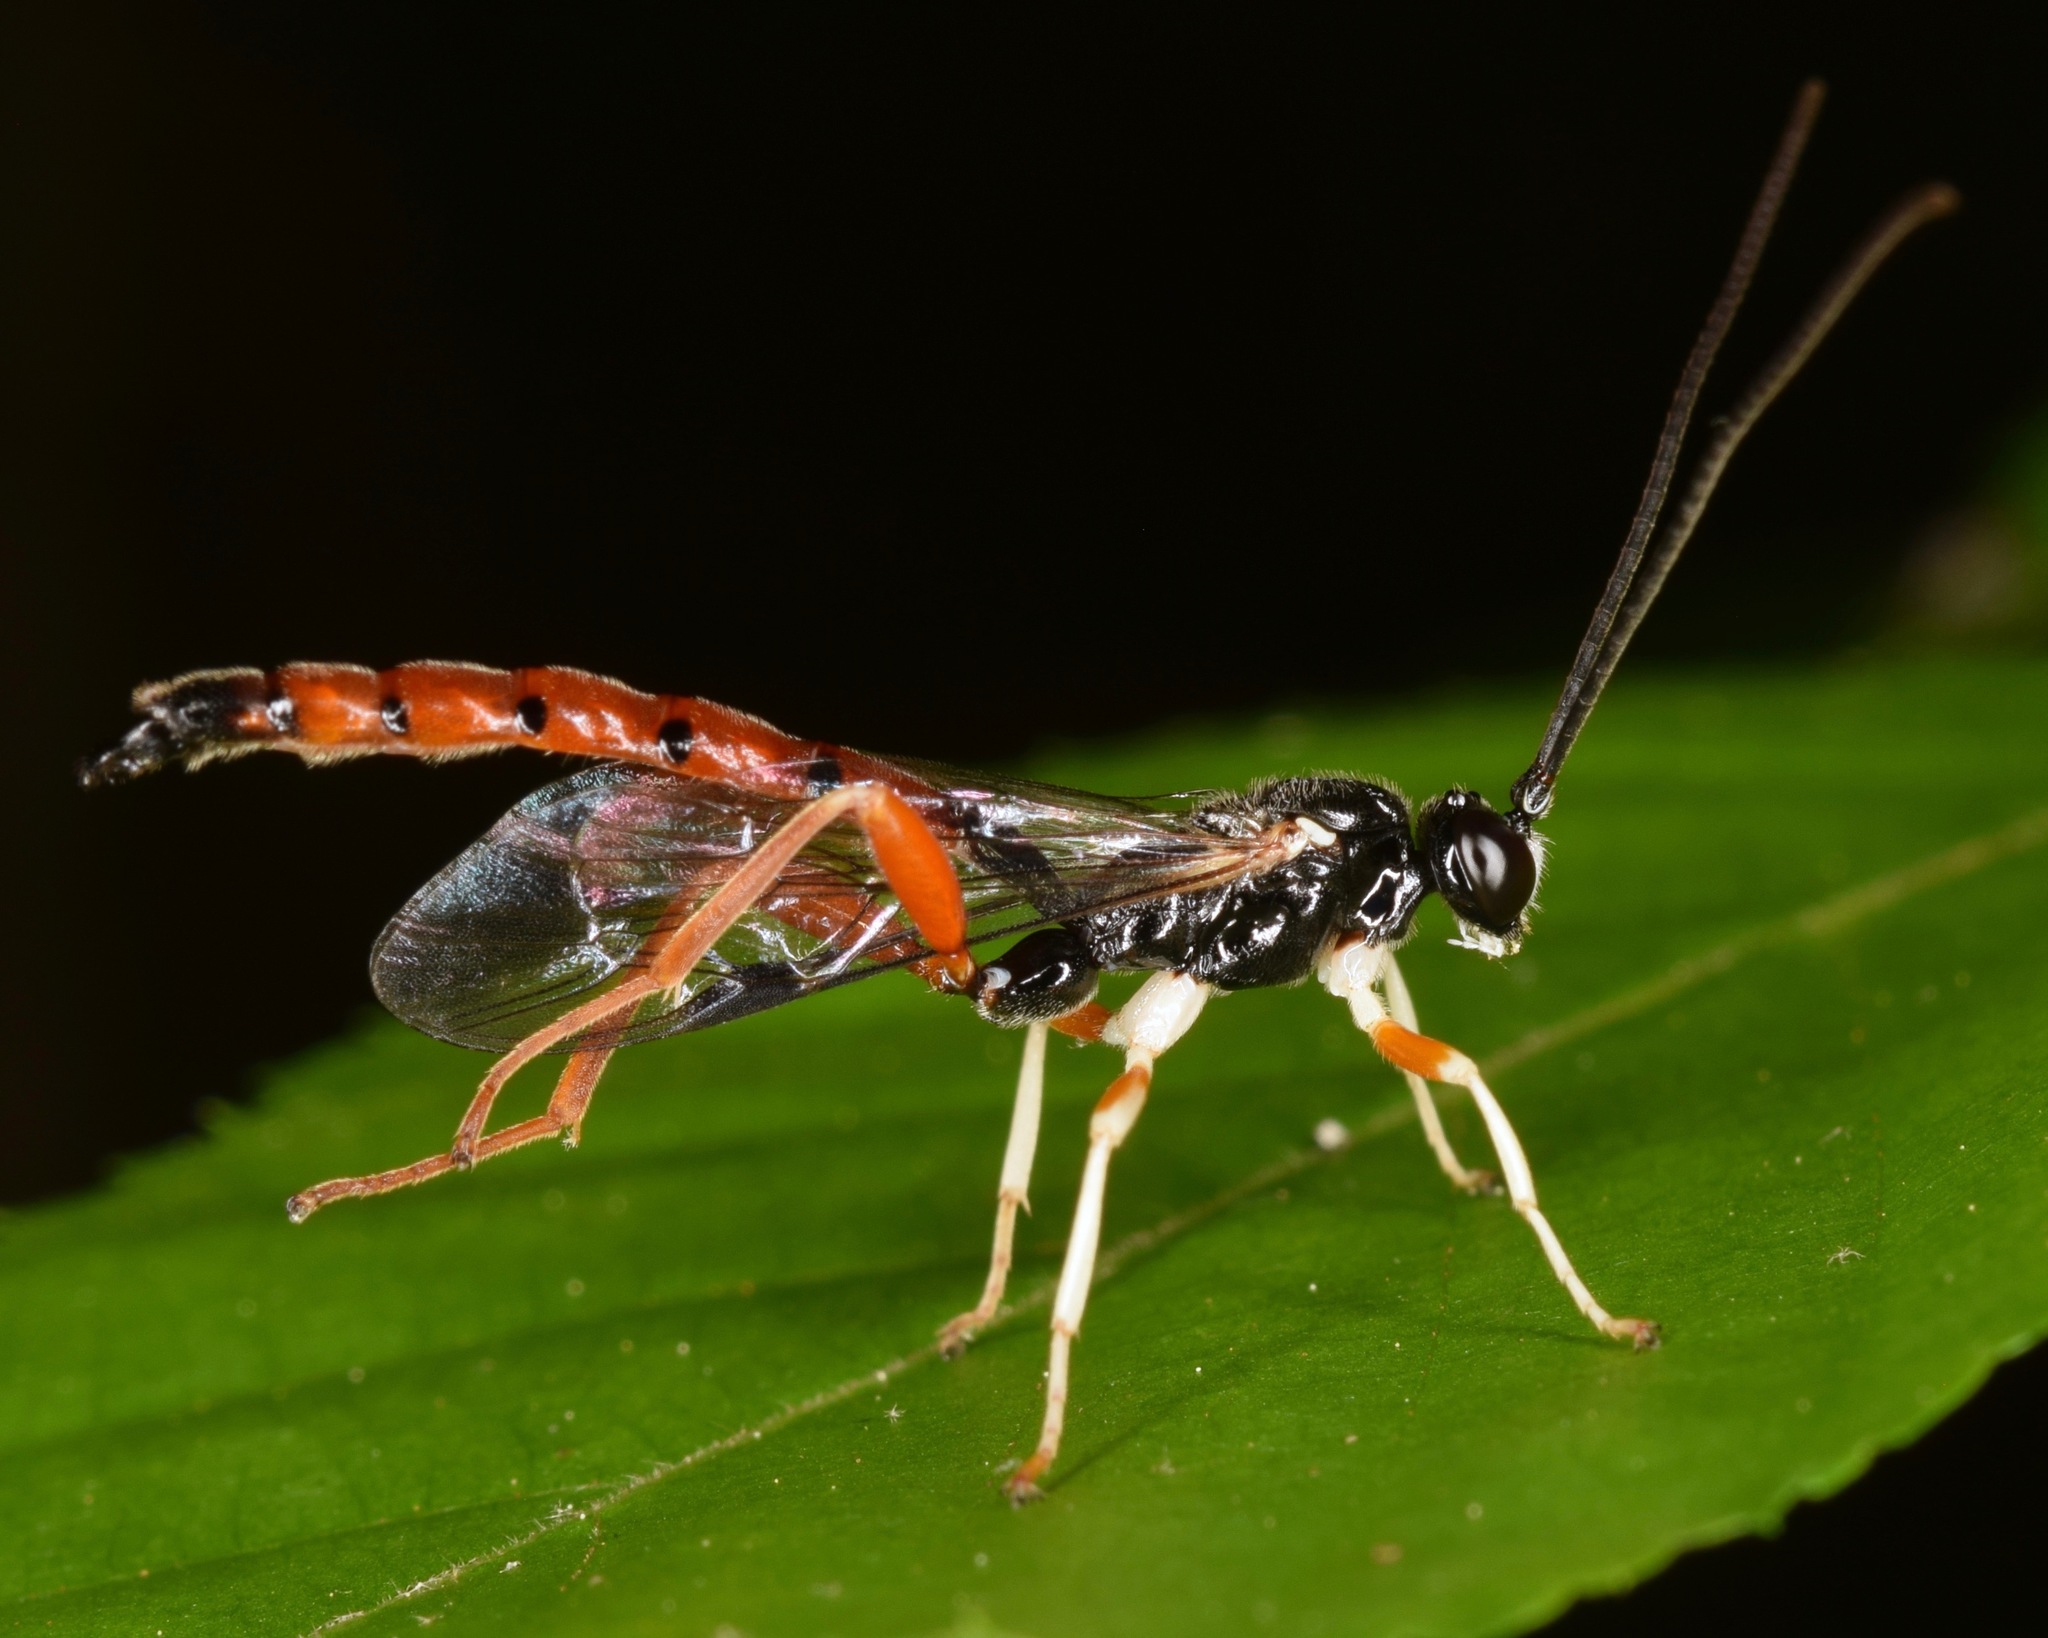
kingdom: Animalia
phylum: Arthropoda
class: Insecta
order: Hymenoptera
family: Ichneumonidae
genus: Dolichomitus
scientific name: Dolichomitus irritator
